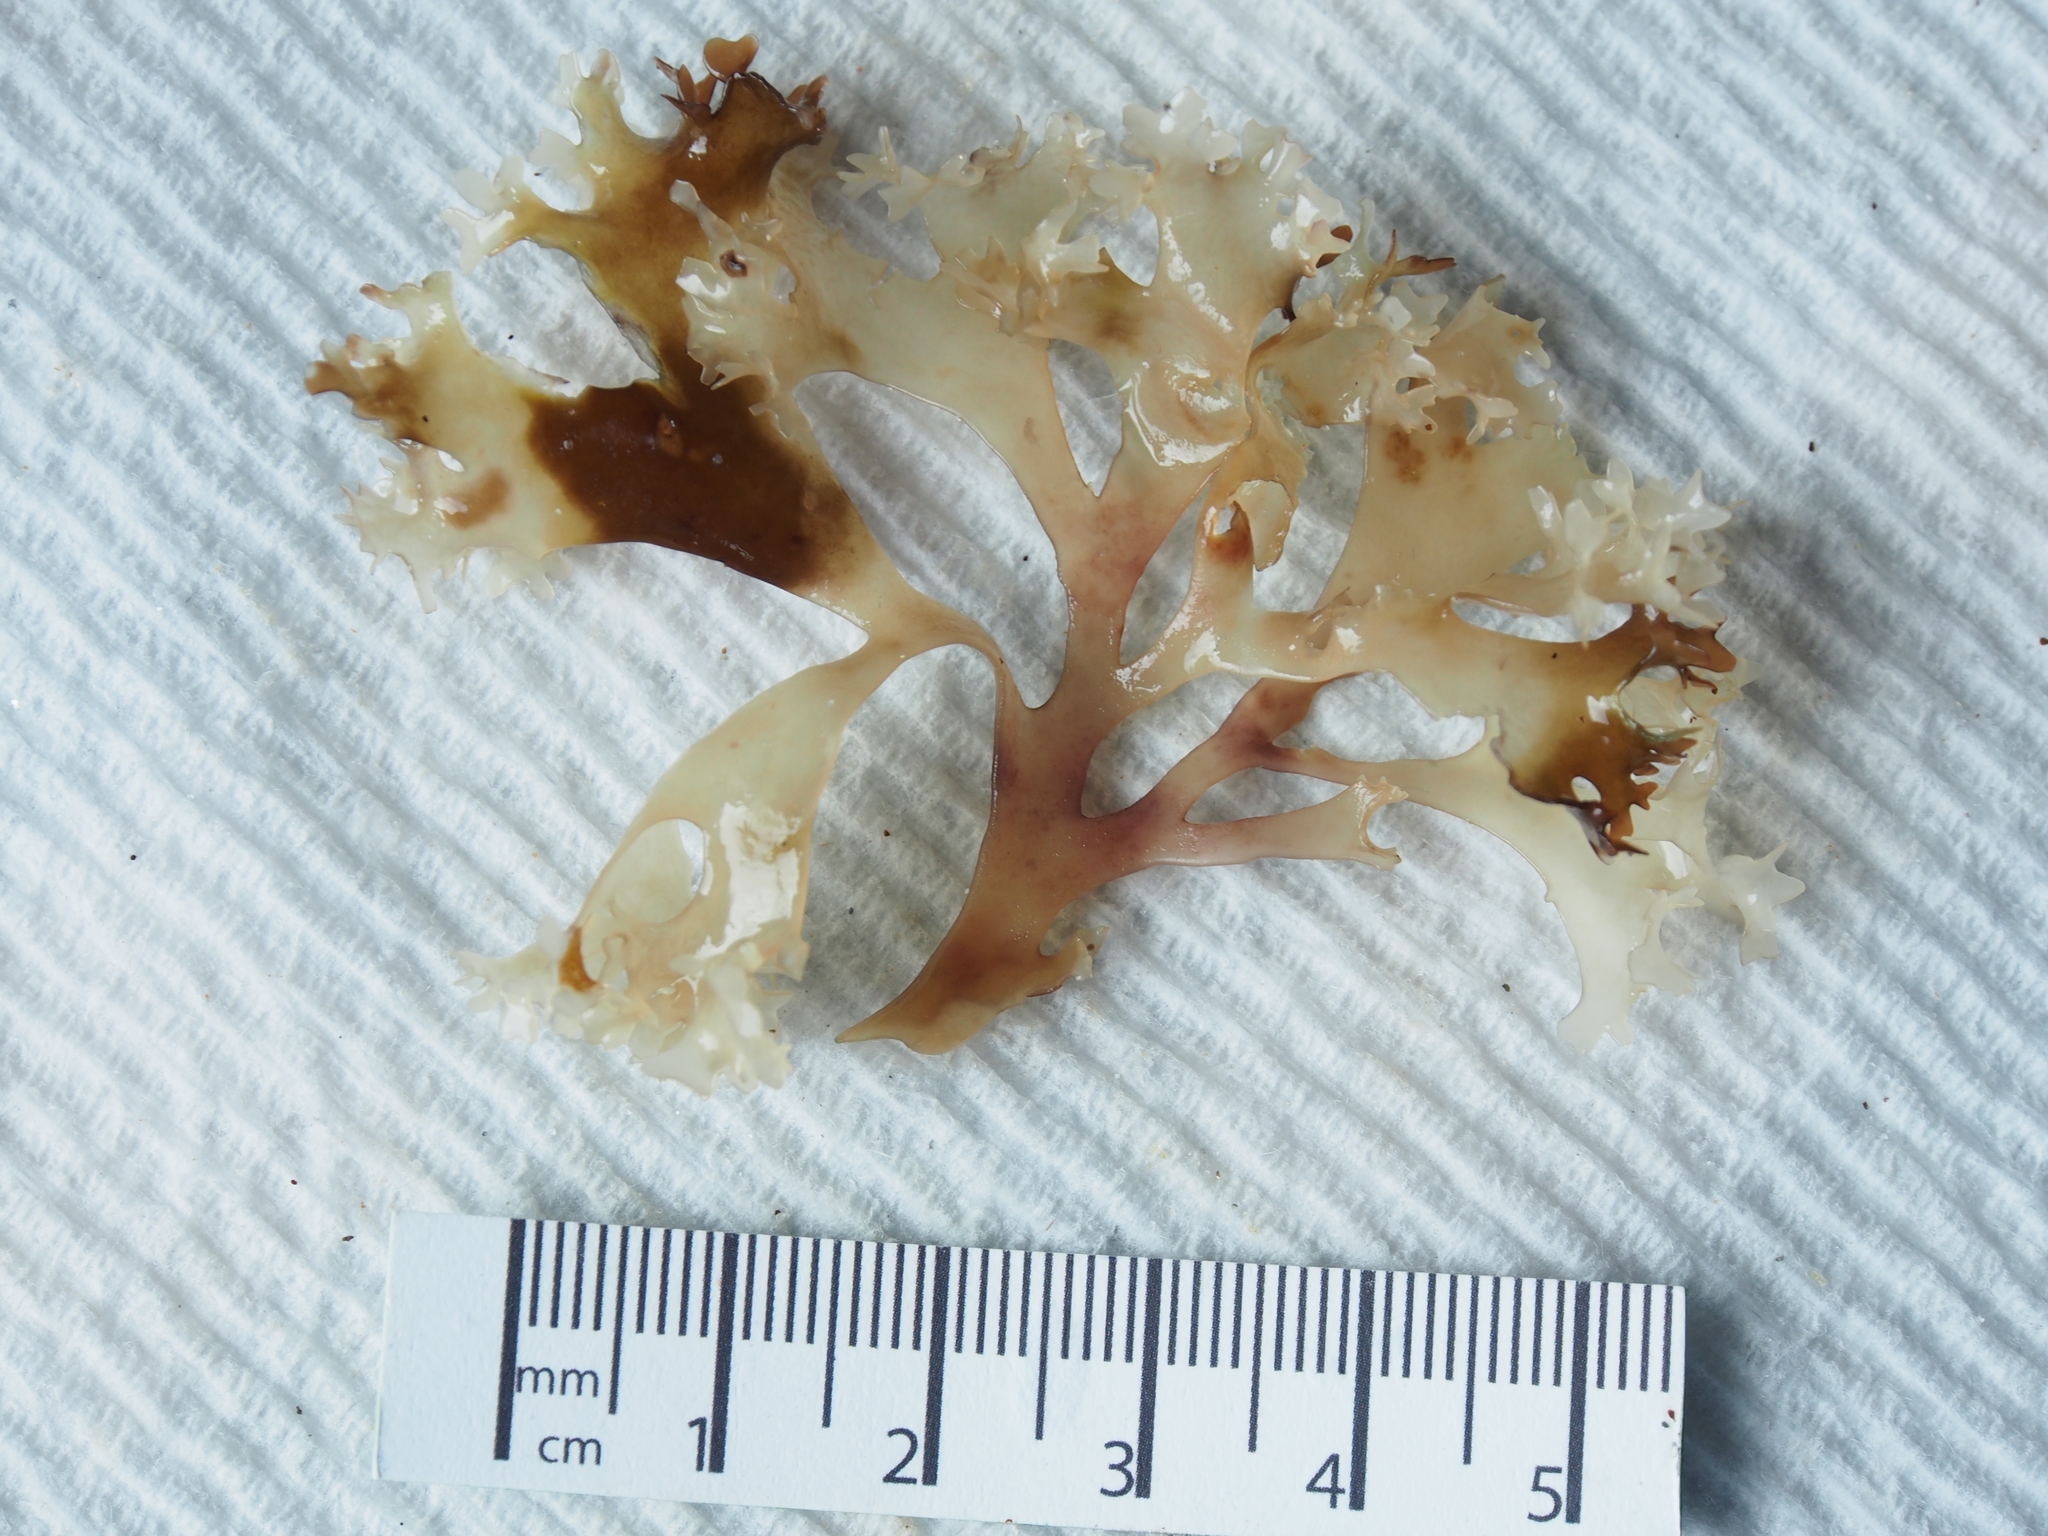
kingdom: Plantae
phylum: Rhodophyta
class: Florideophyceae
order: Gigartinales
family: Gigartinaceae
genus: Chondrus
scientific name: Chondrus crispus
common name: Carrageen
